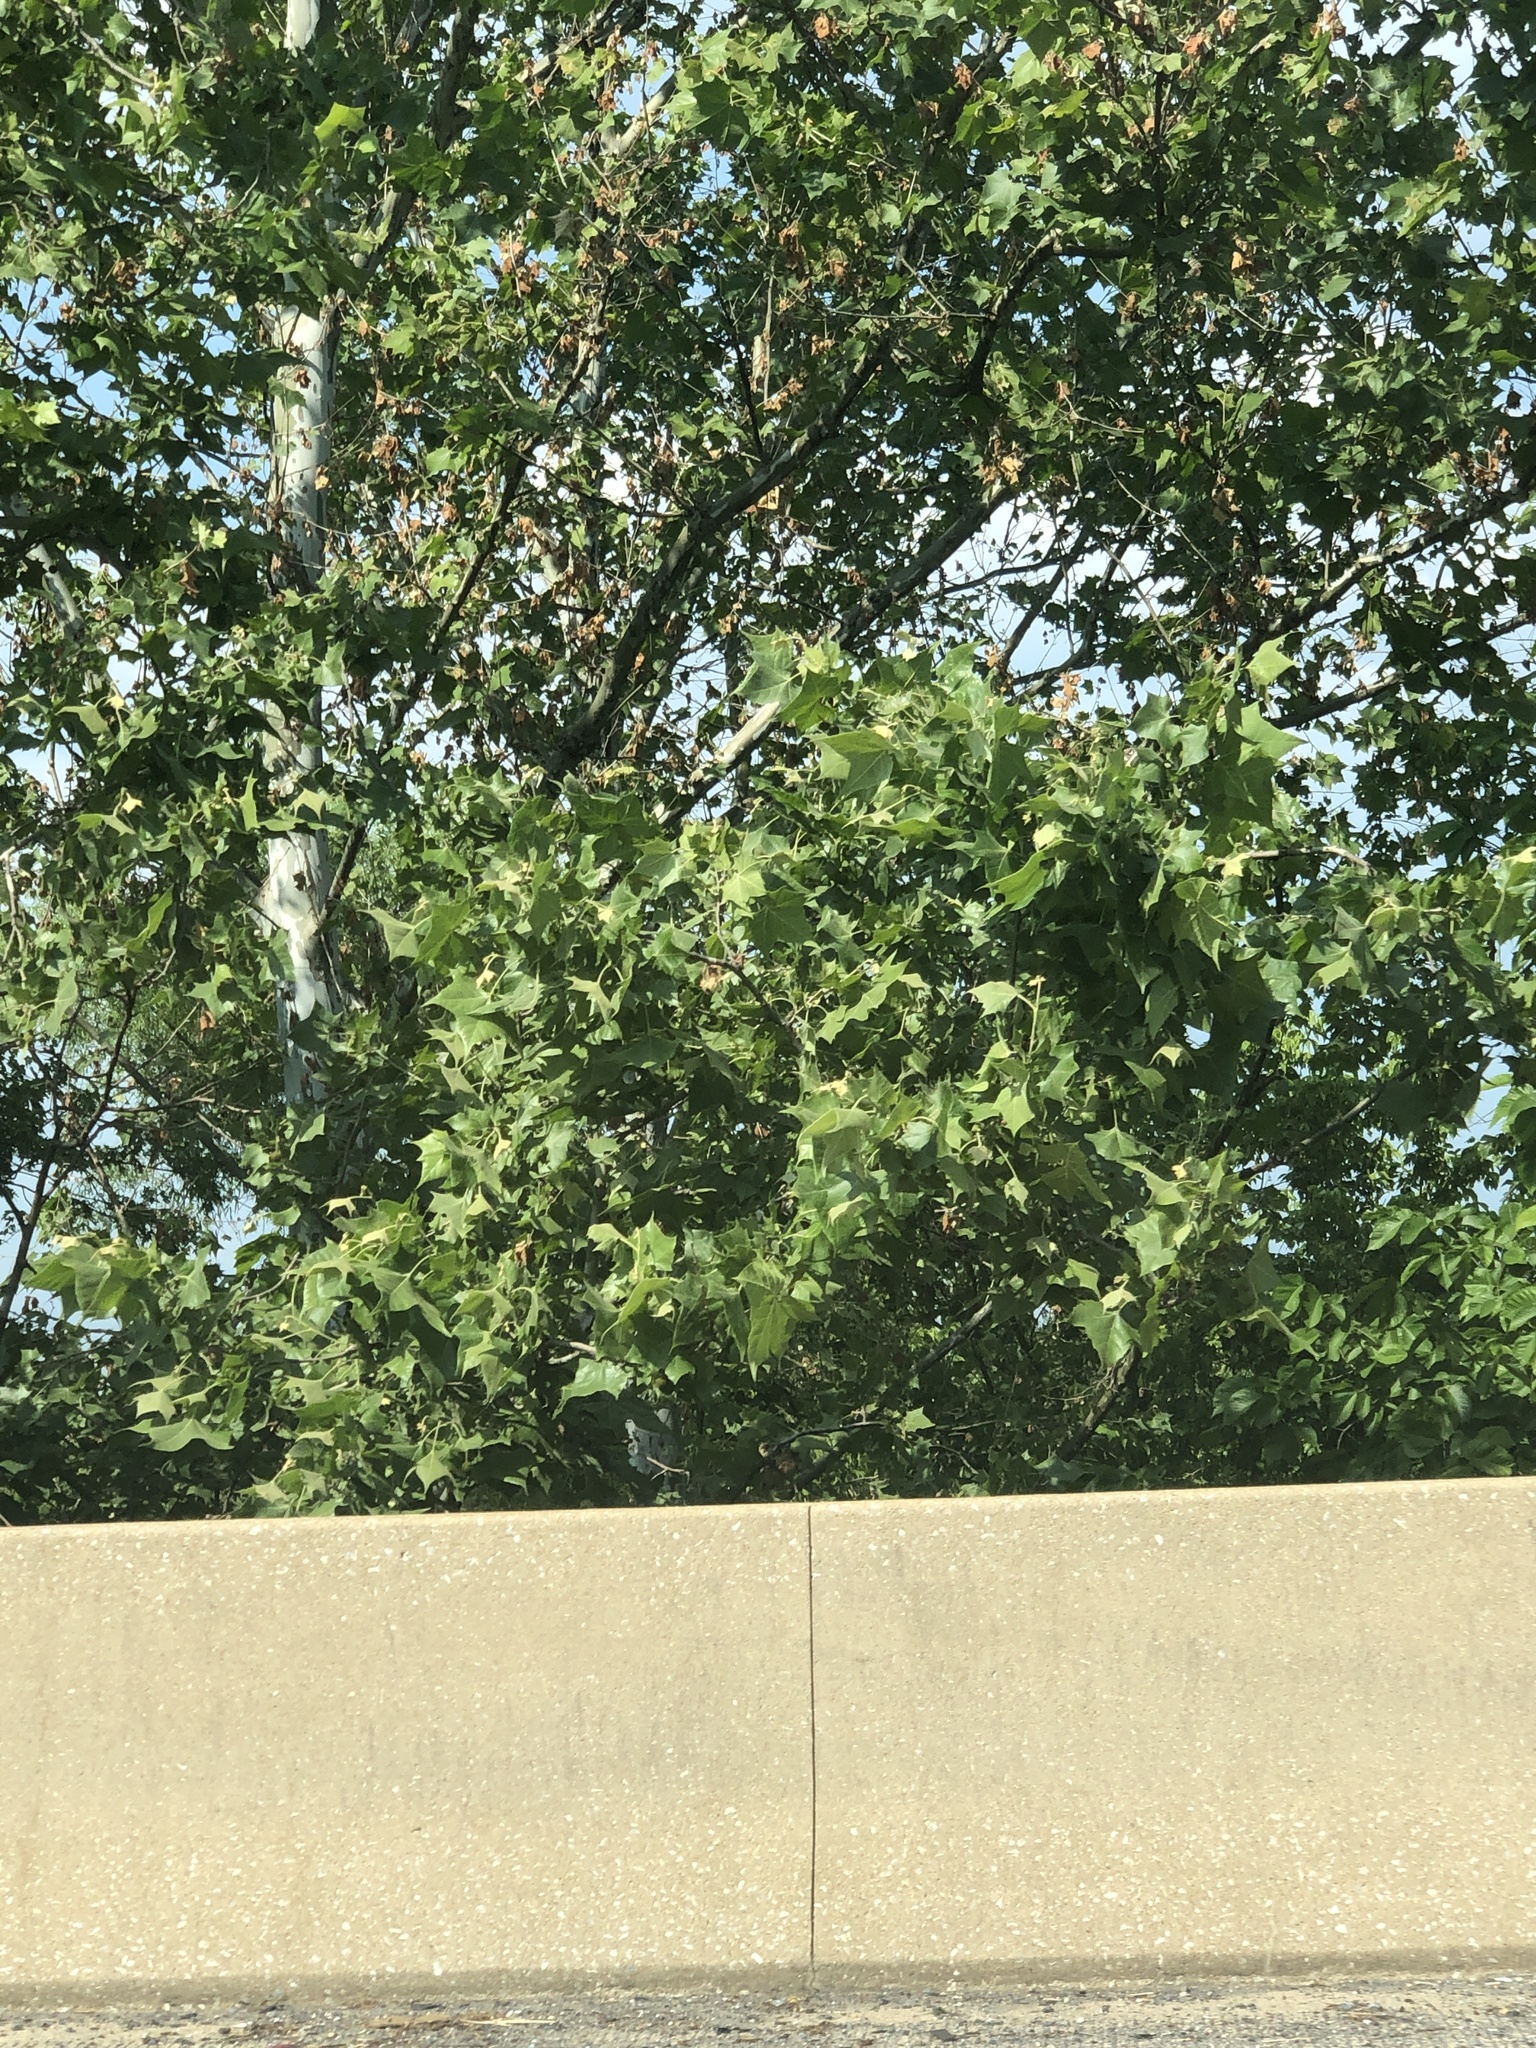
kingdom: Plantae
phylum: Tracheophyta
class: Magnoliopsida
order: Proteales
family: Platanaceae
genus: Platanus
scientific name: Platanus occidentalis
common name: American sycamore
